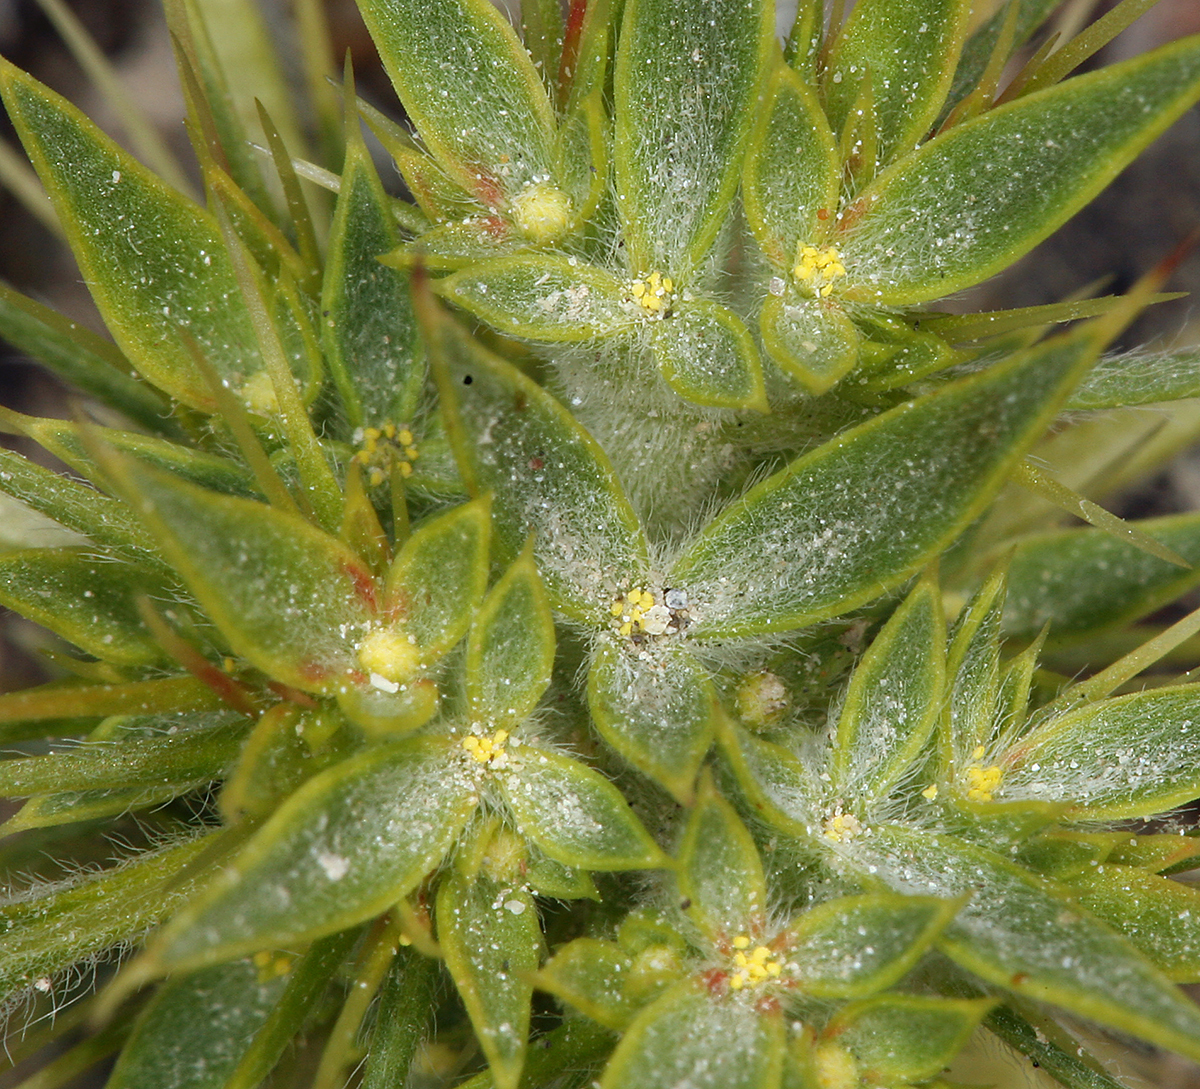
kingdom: Plantae
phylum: Tracheophyta
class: Magnoliopsida
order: Caryophyllales
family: Polygonaceae
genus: Chorizanthe
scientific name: Chorizanthe rigida
